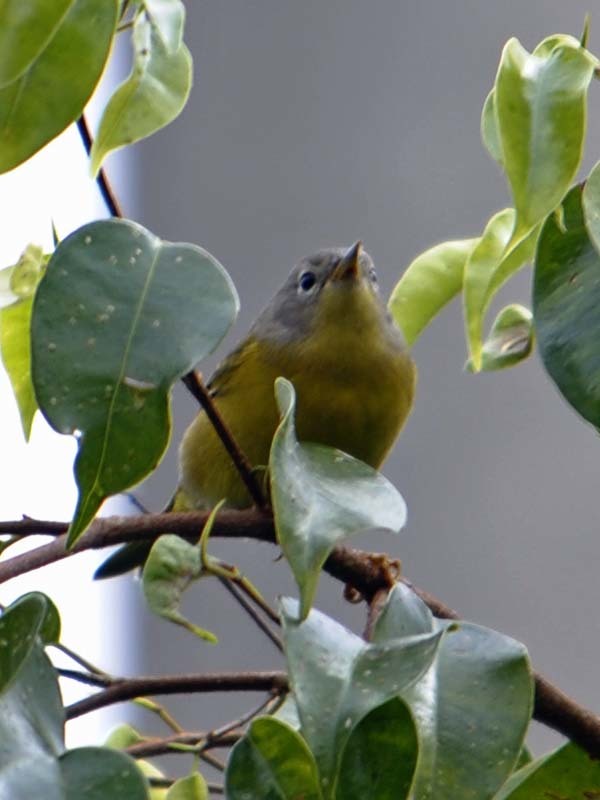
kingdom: Animalia
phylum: Chordata
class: Aves
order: Passeriformes
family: Parulidae
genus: Leiothlypis
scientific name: Leiothlypis ruficapilla
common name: Nashville warbler
